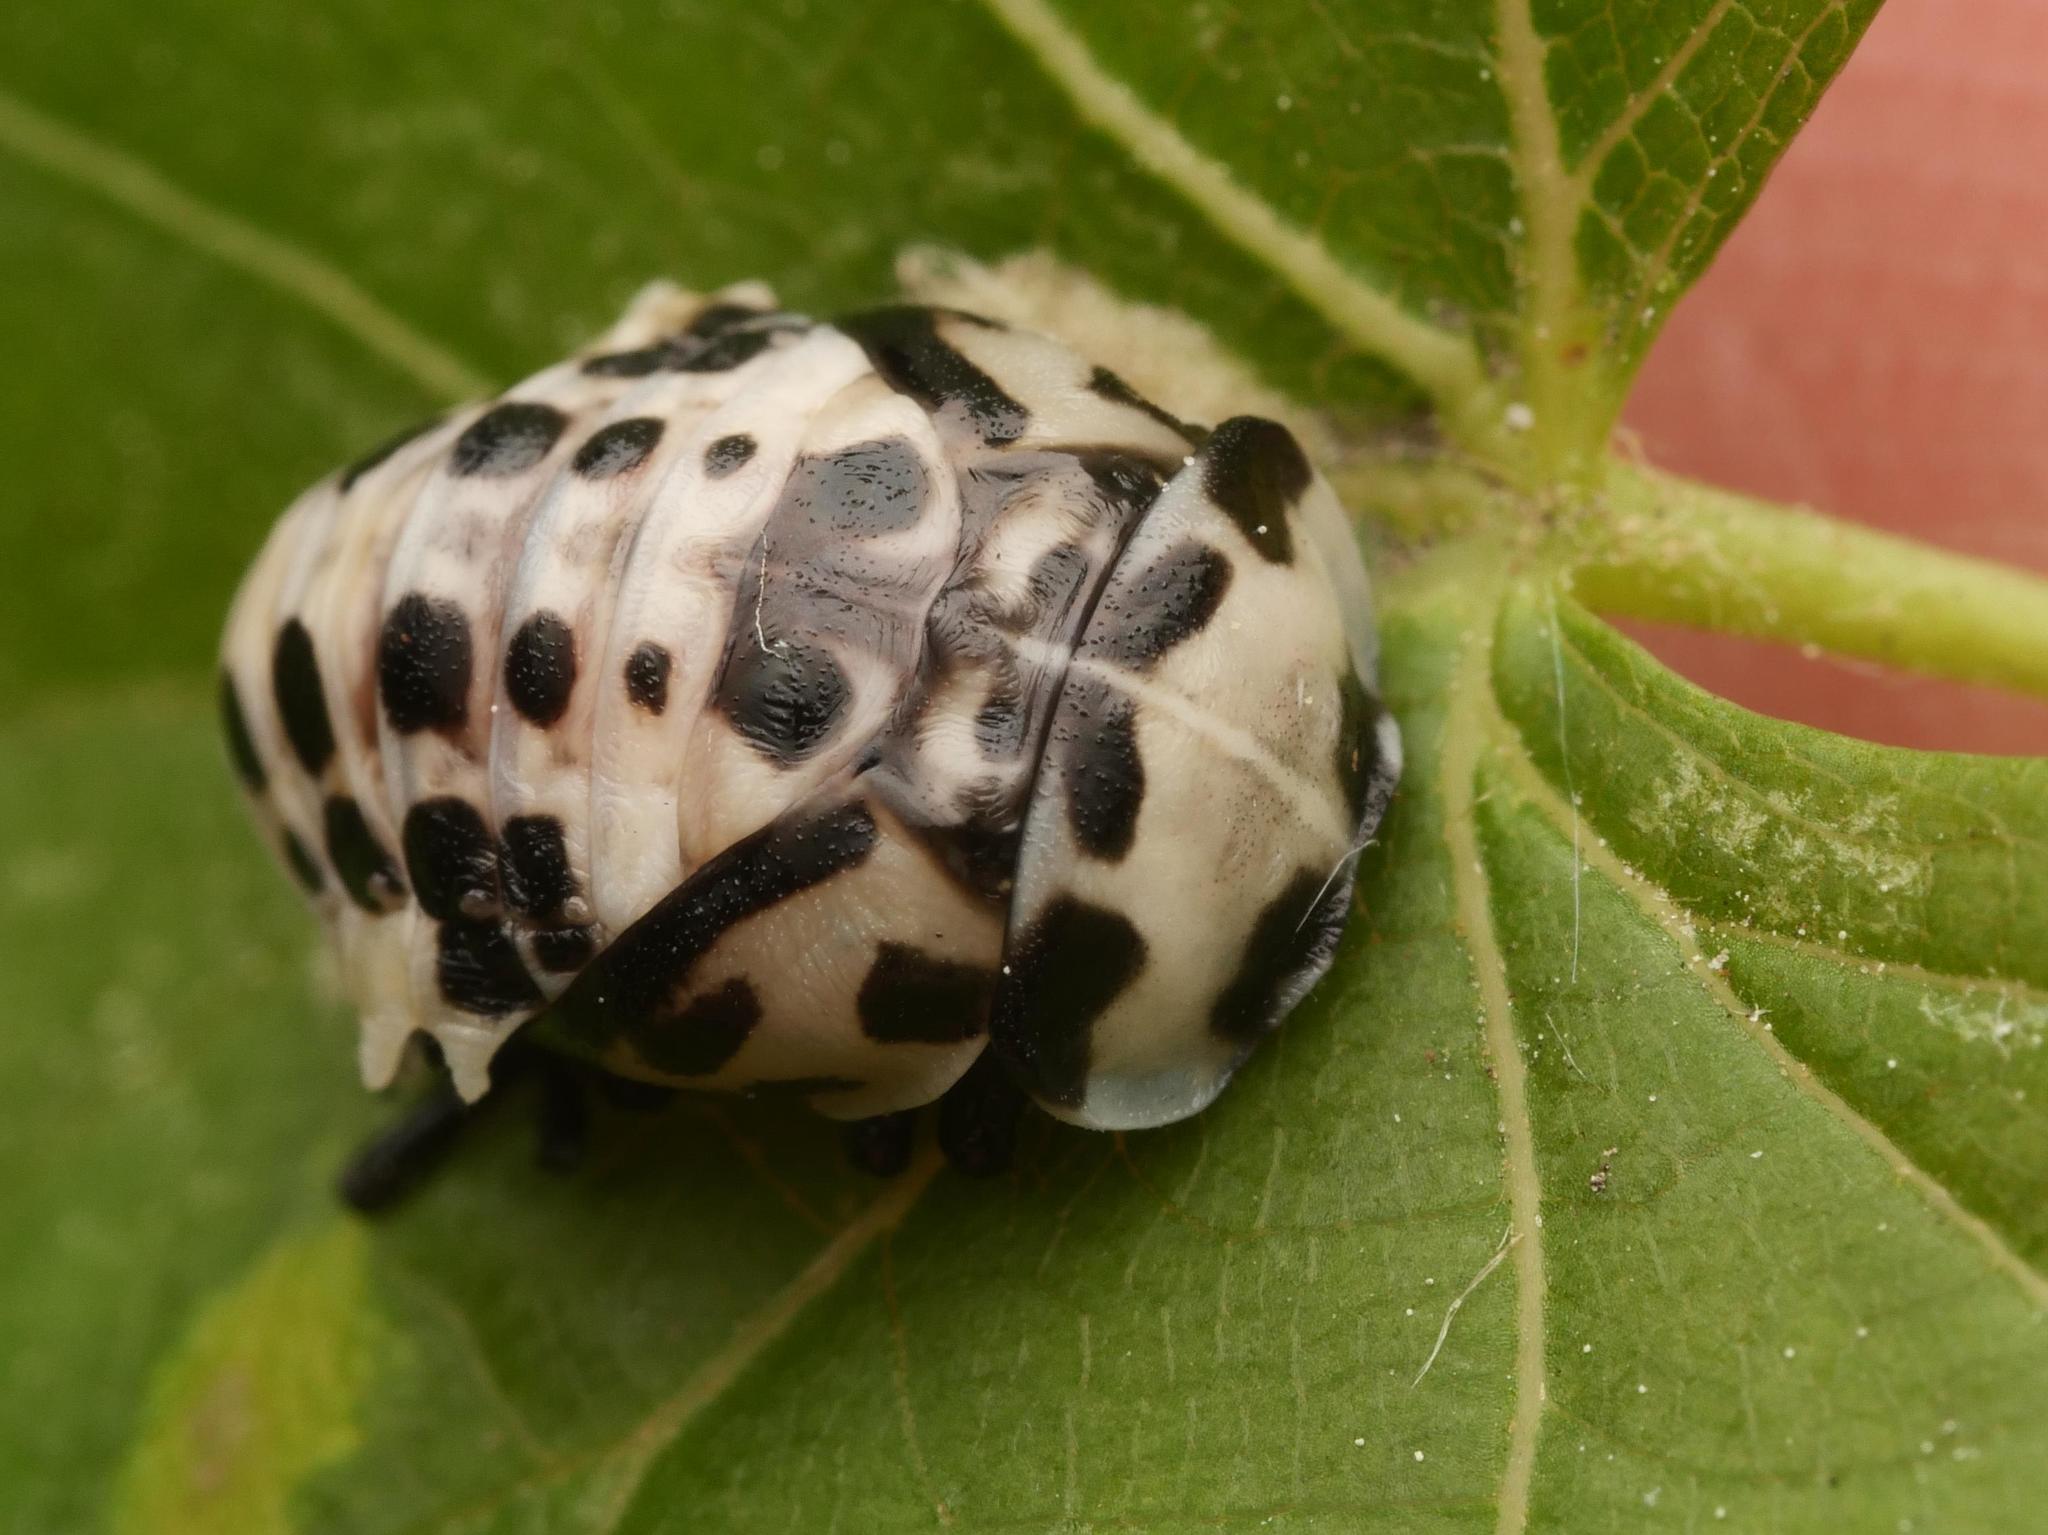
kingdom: Animalia
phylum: Arthropoda
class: Insecta
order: Coleoptera
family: Coccinellidae
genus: Anatis
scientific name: Anatis ocellata
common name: Eyed ladybird
